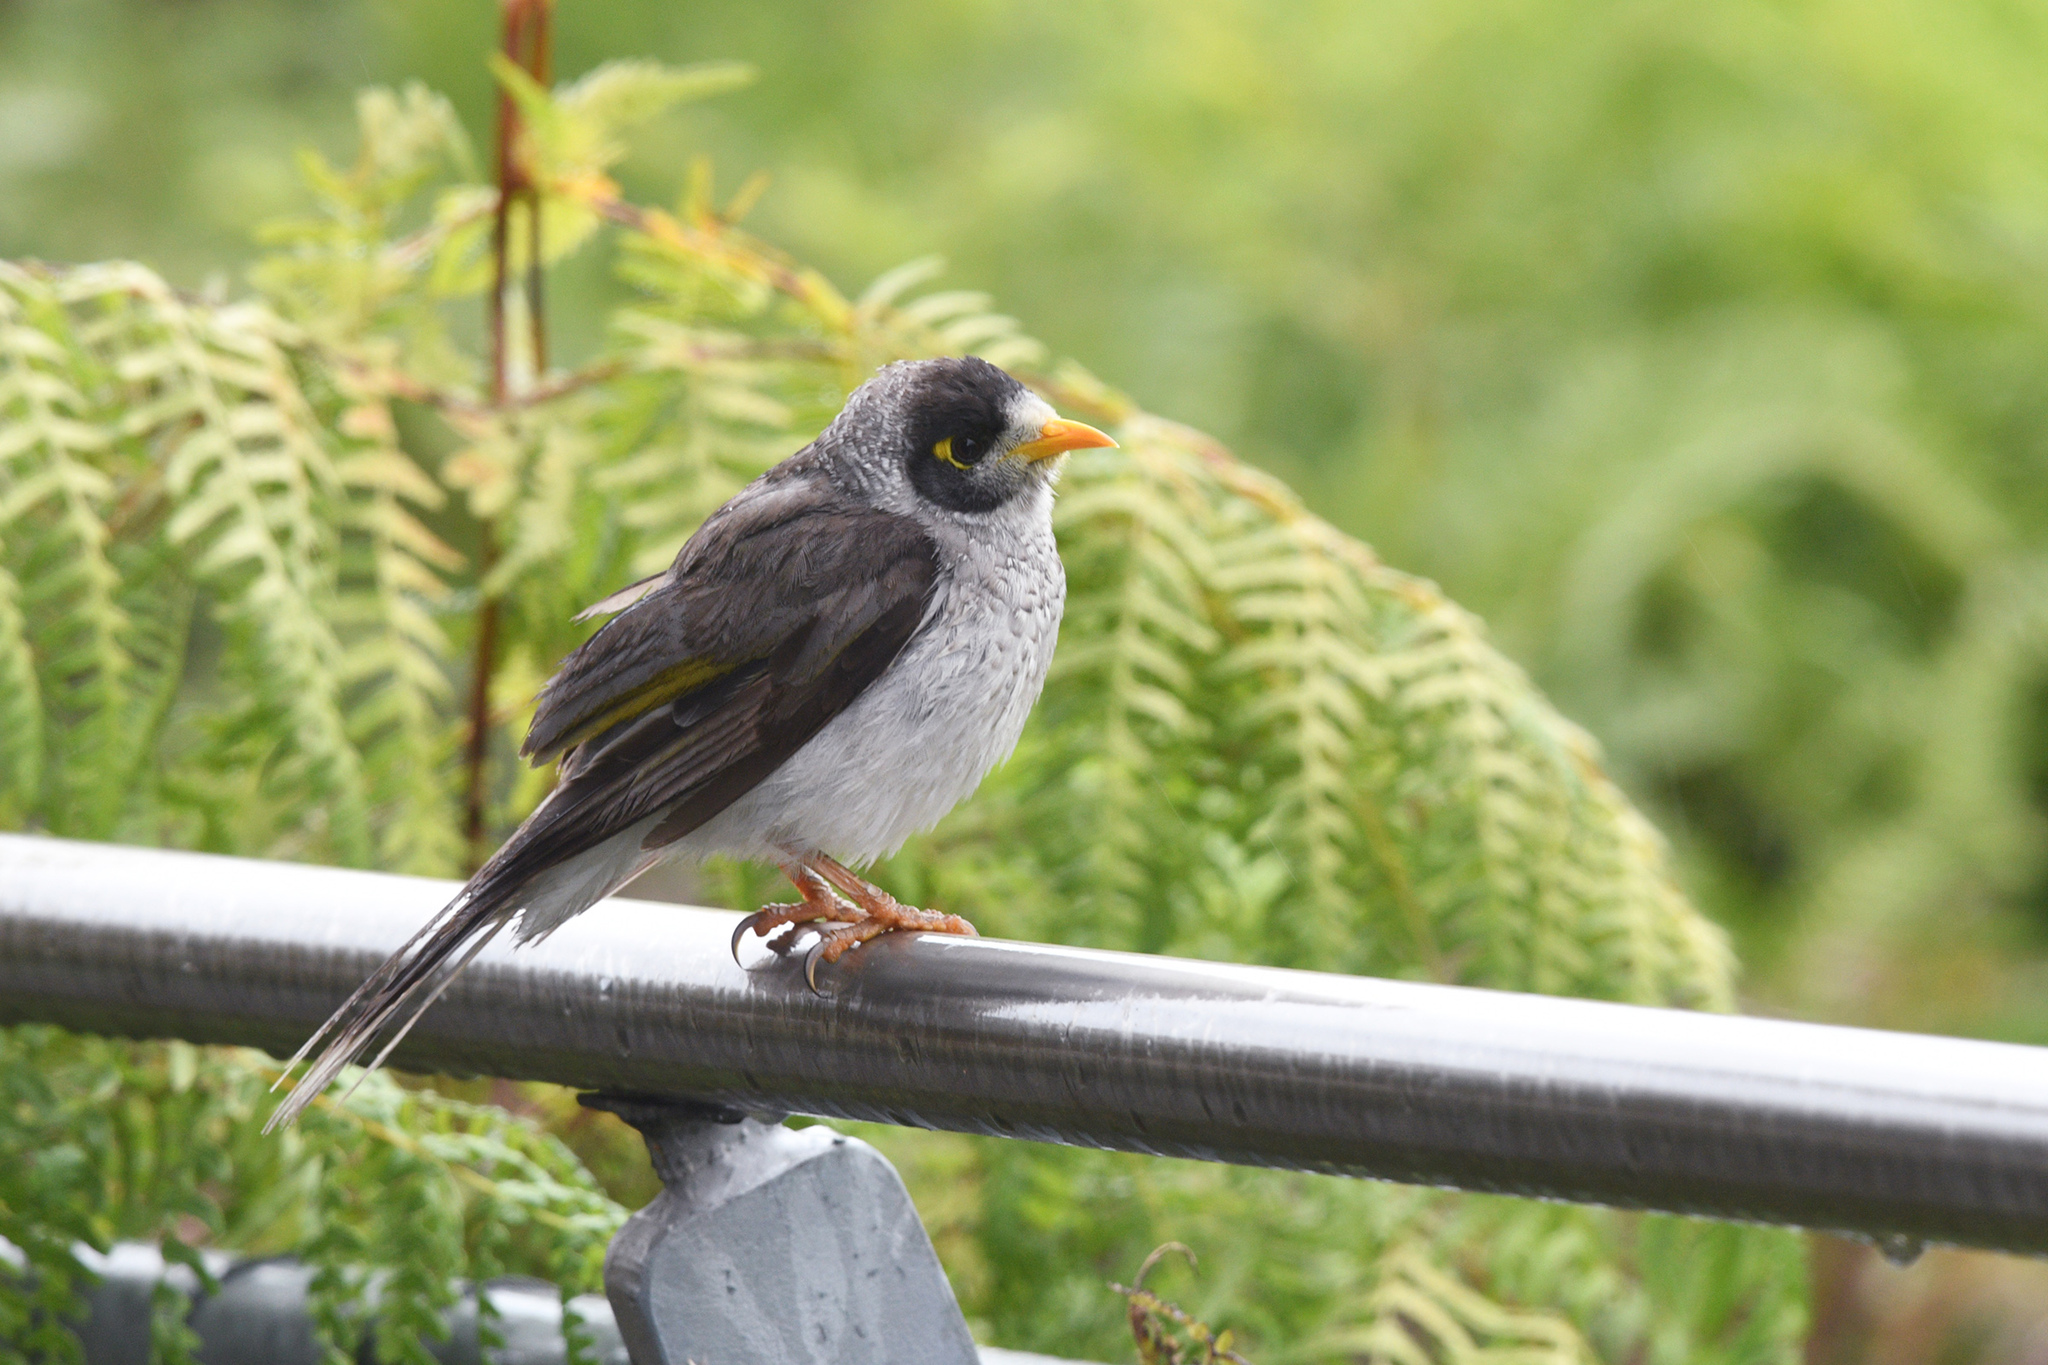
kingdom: Animalia
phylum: Chordata
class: Aves
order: Passeriformes
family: Meliphagidae
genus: Manorina
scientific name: Manorina melanocephala
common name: Noisy miner
